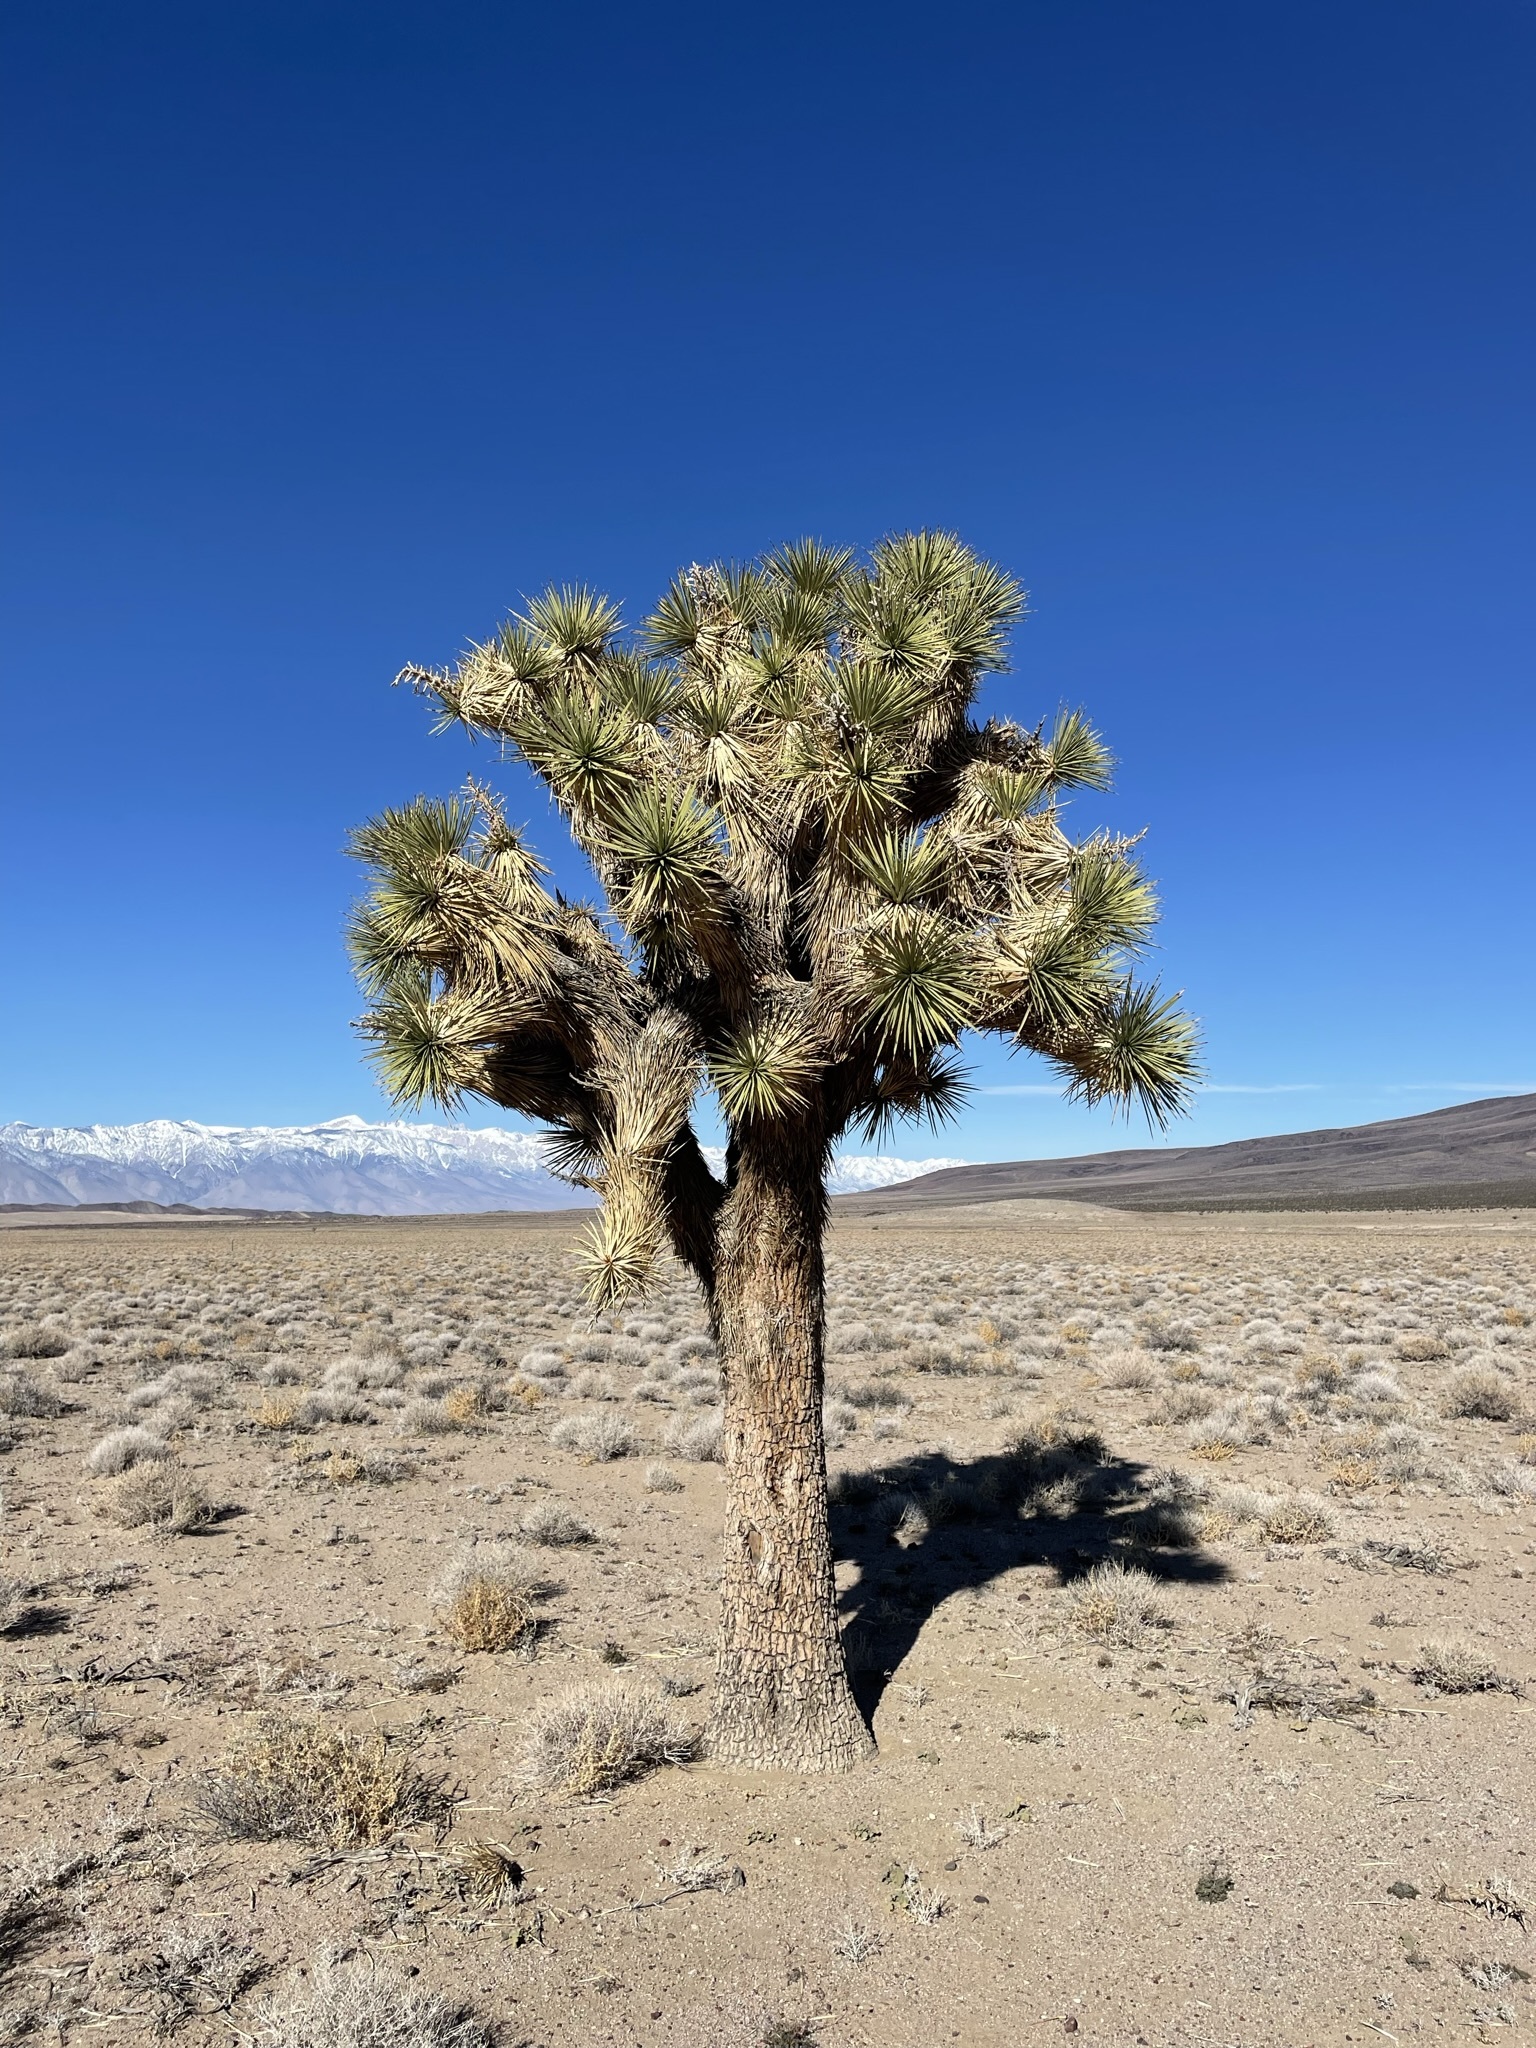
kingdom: Plantae
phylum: Tracheophyta
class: Liliopsida
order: Asparagales
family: Asparagaceae
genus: Yucca
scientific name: Yucca brevifolia
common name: Joshua tree
